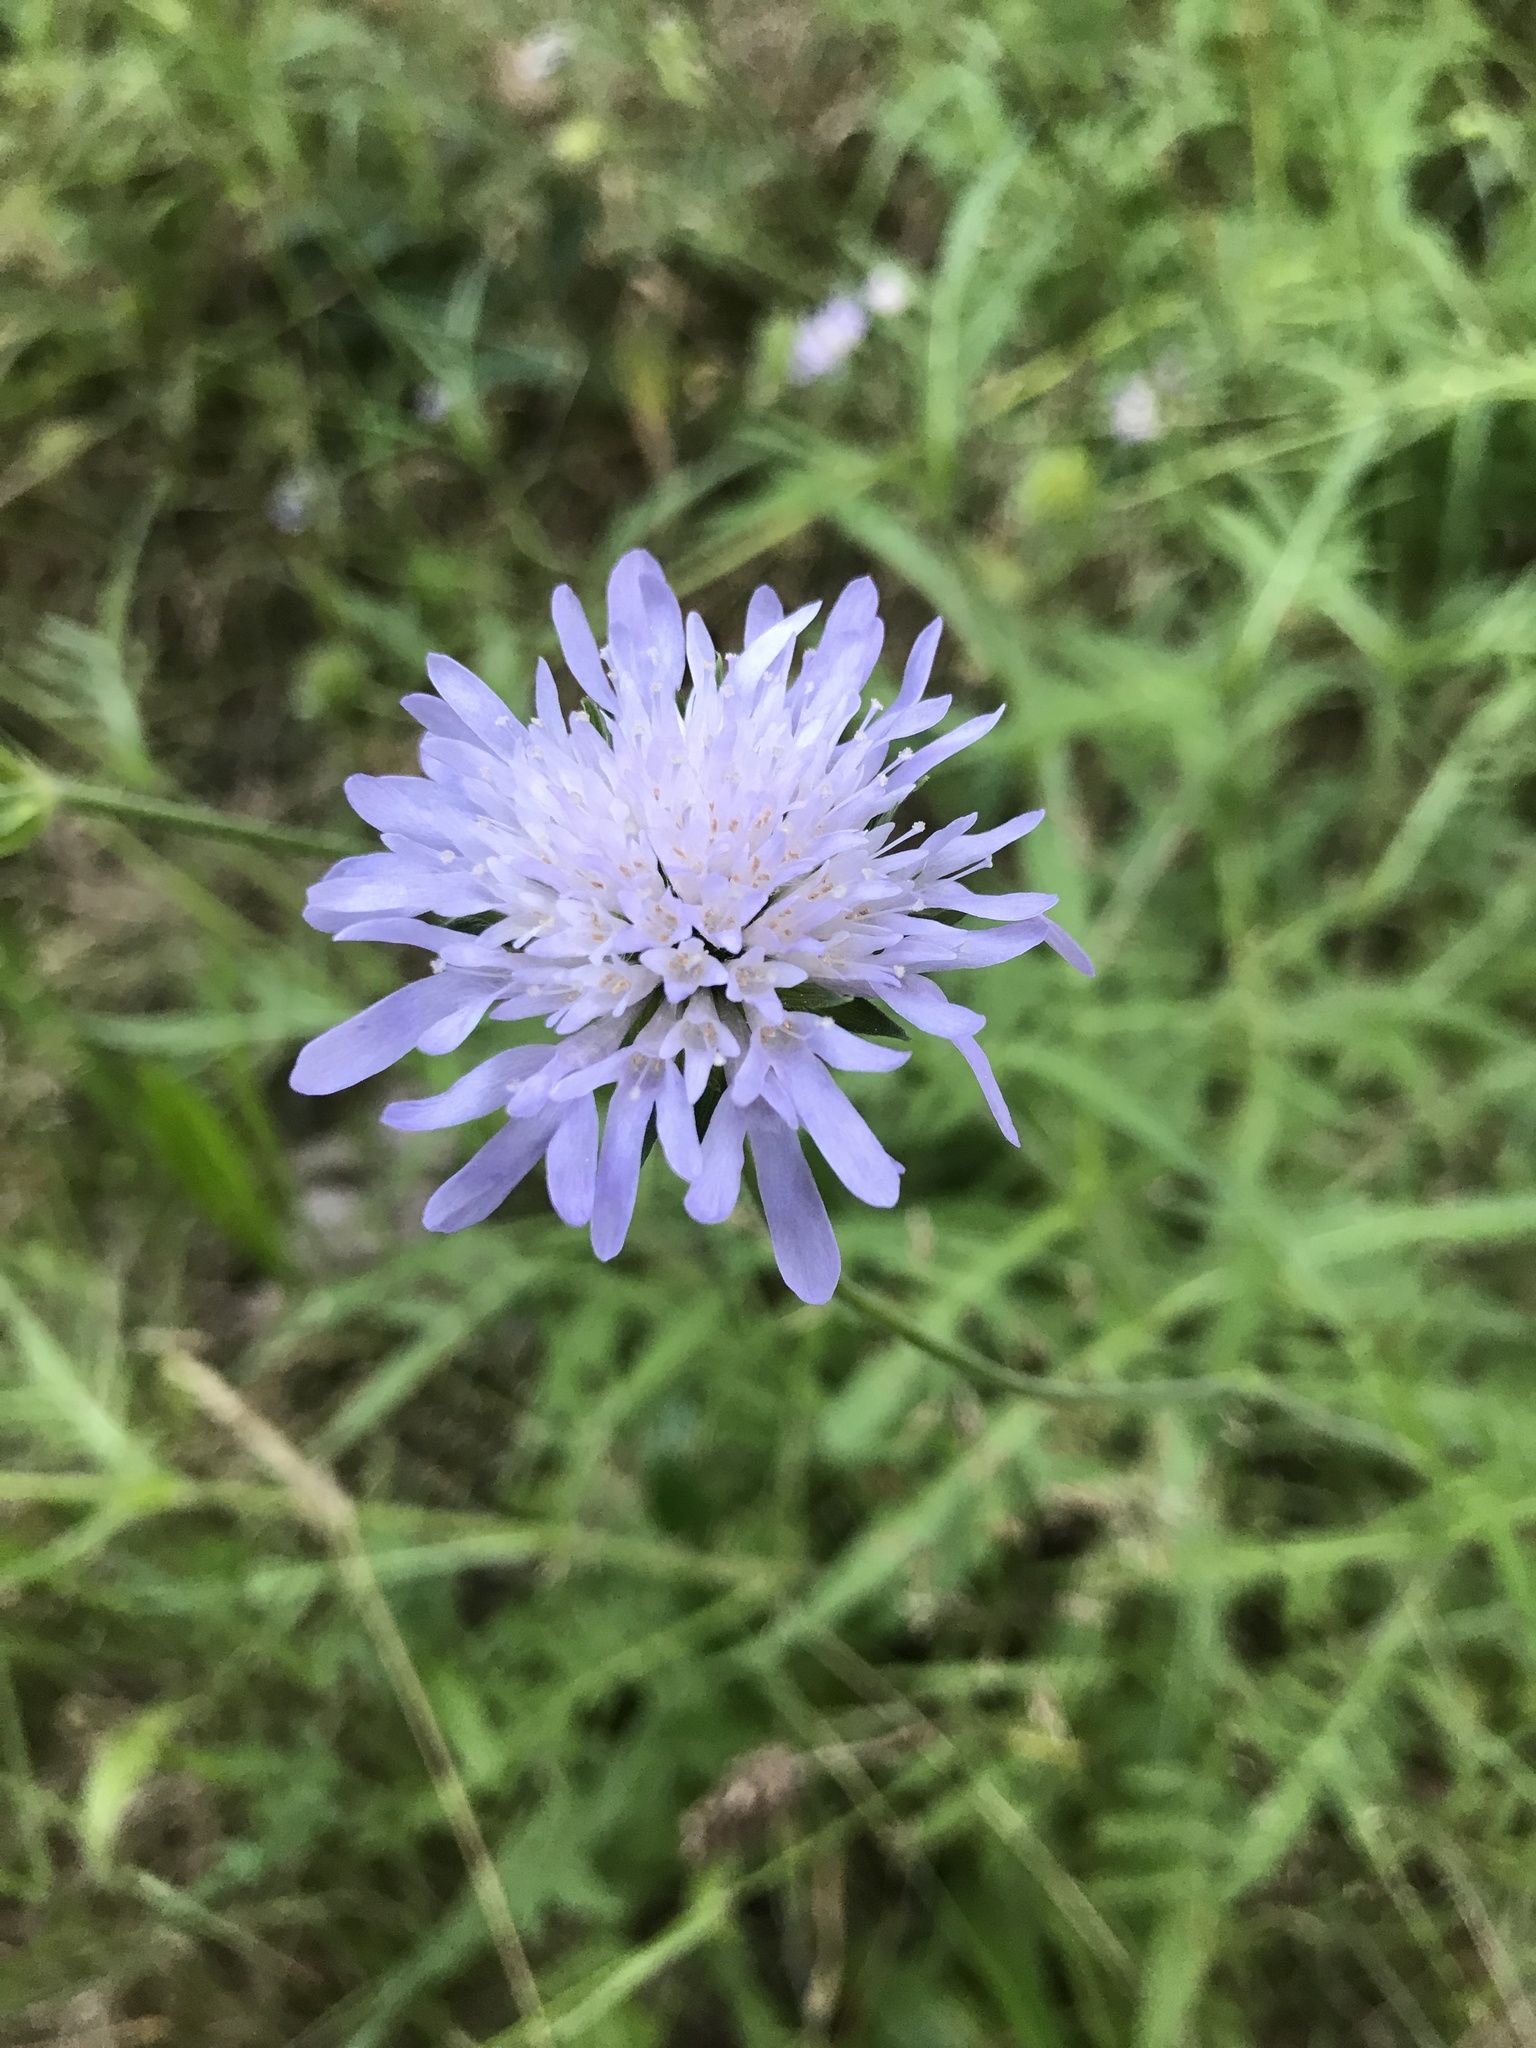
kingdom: Plantae
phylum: Tracheophyta
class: Magnoliopsida
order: Dipsacales
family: Caprifoliaceae
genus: Knautia
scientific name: Knautia arvensis
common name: Field scabiosa
